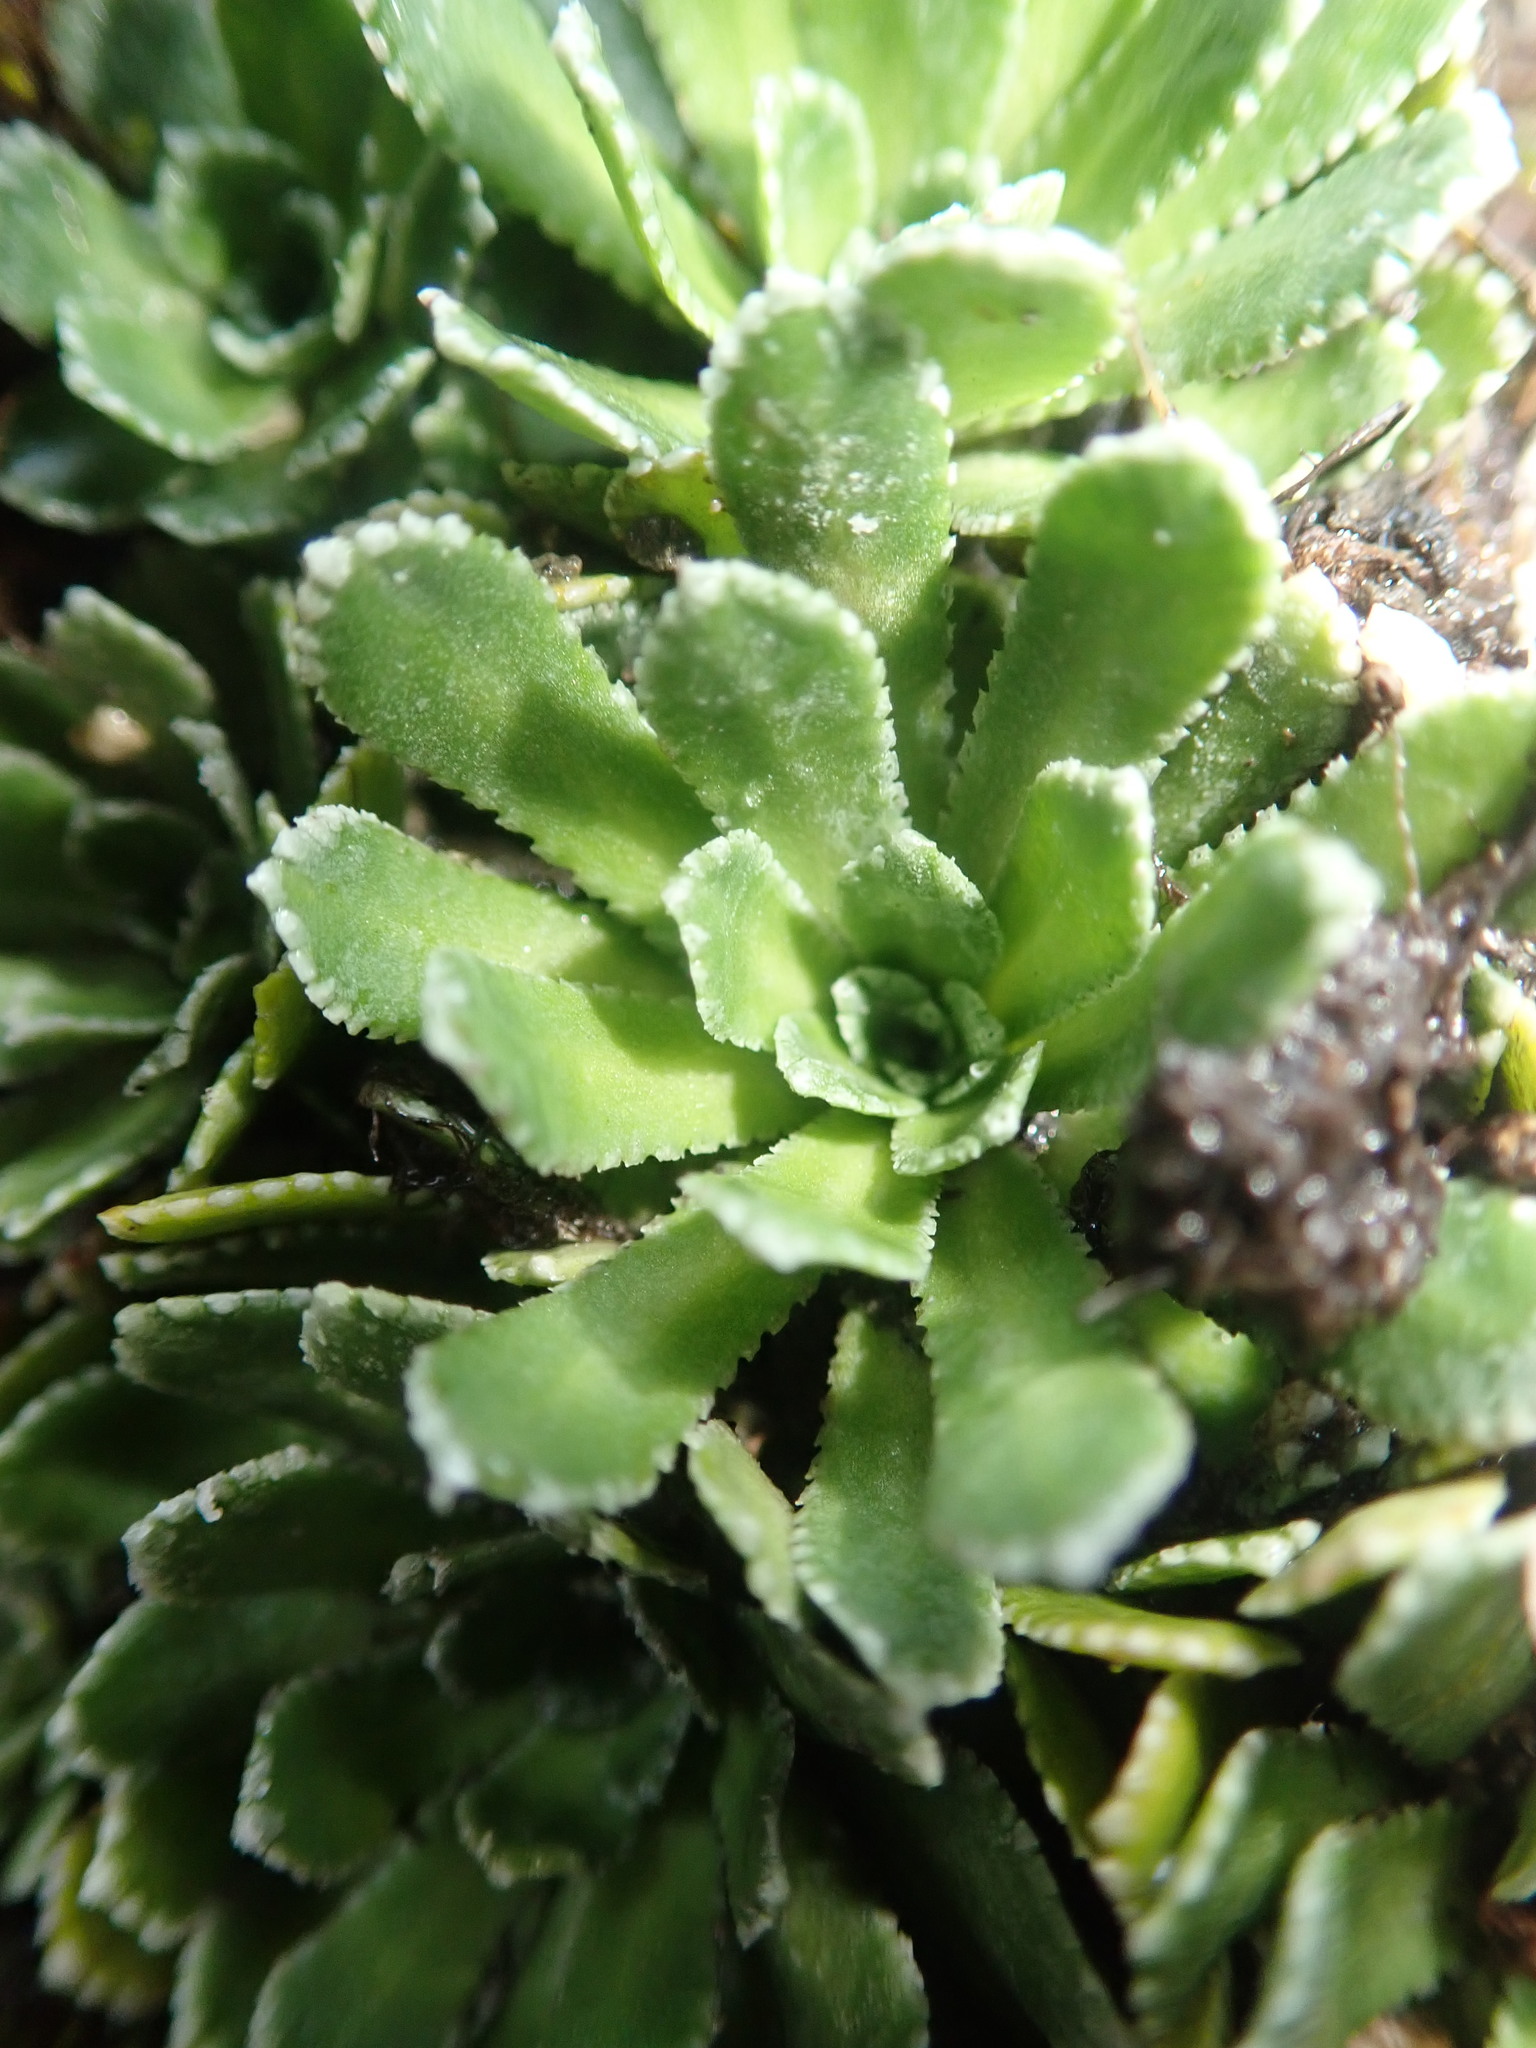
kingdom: Plantae
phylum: Tracheophyta
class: Magnoliopsida
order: Saxifragales
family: Saxifragaceae
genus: Saxifraga
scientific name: Saxifraga paniculata
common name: Livelong saxifrage
